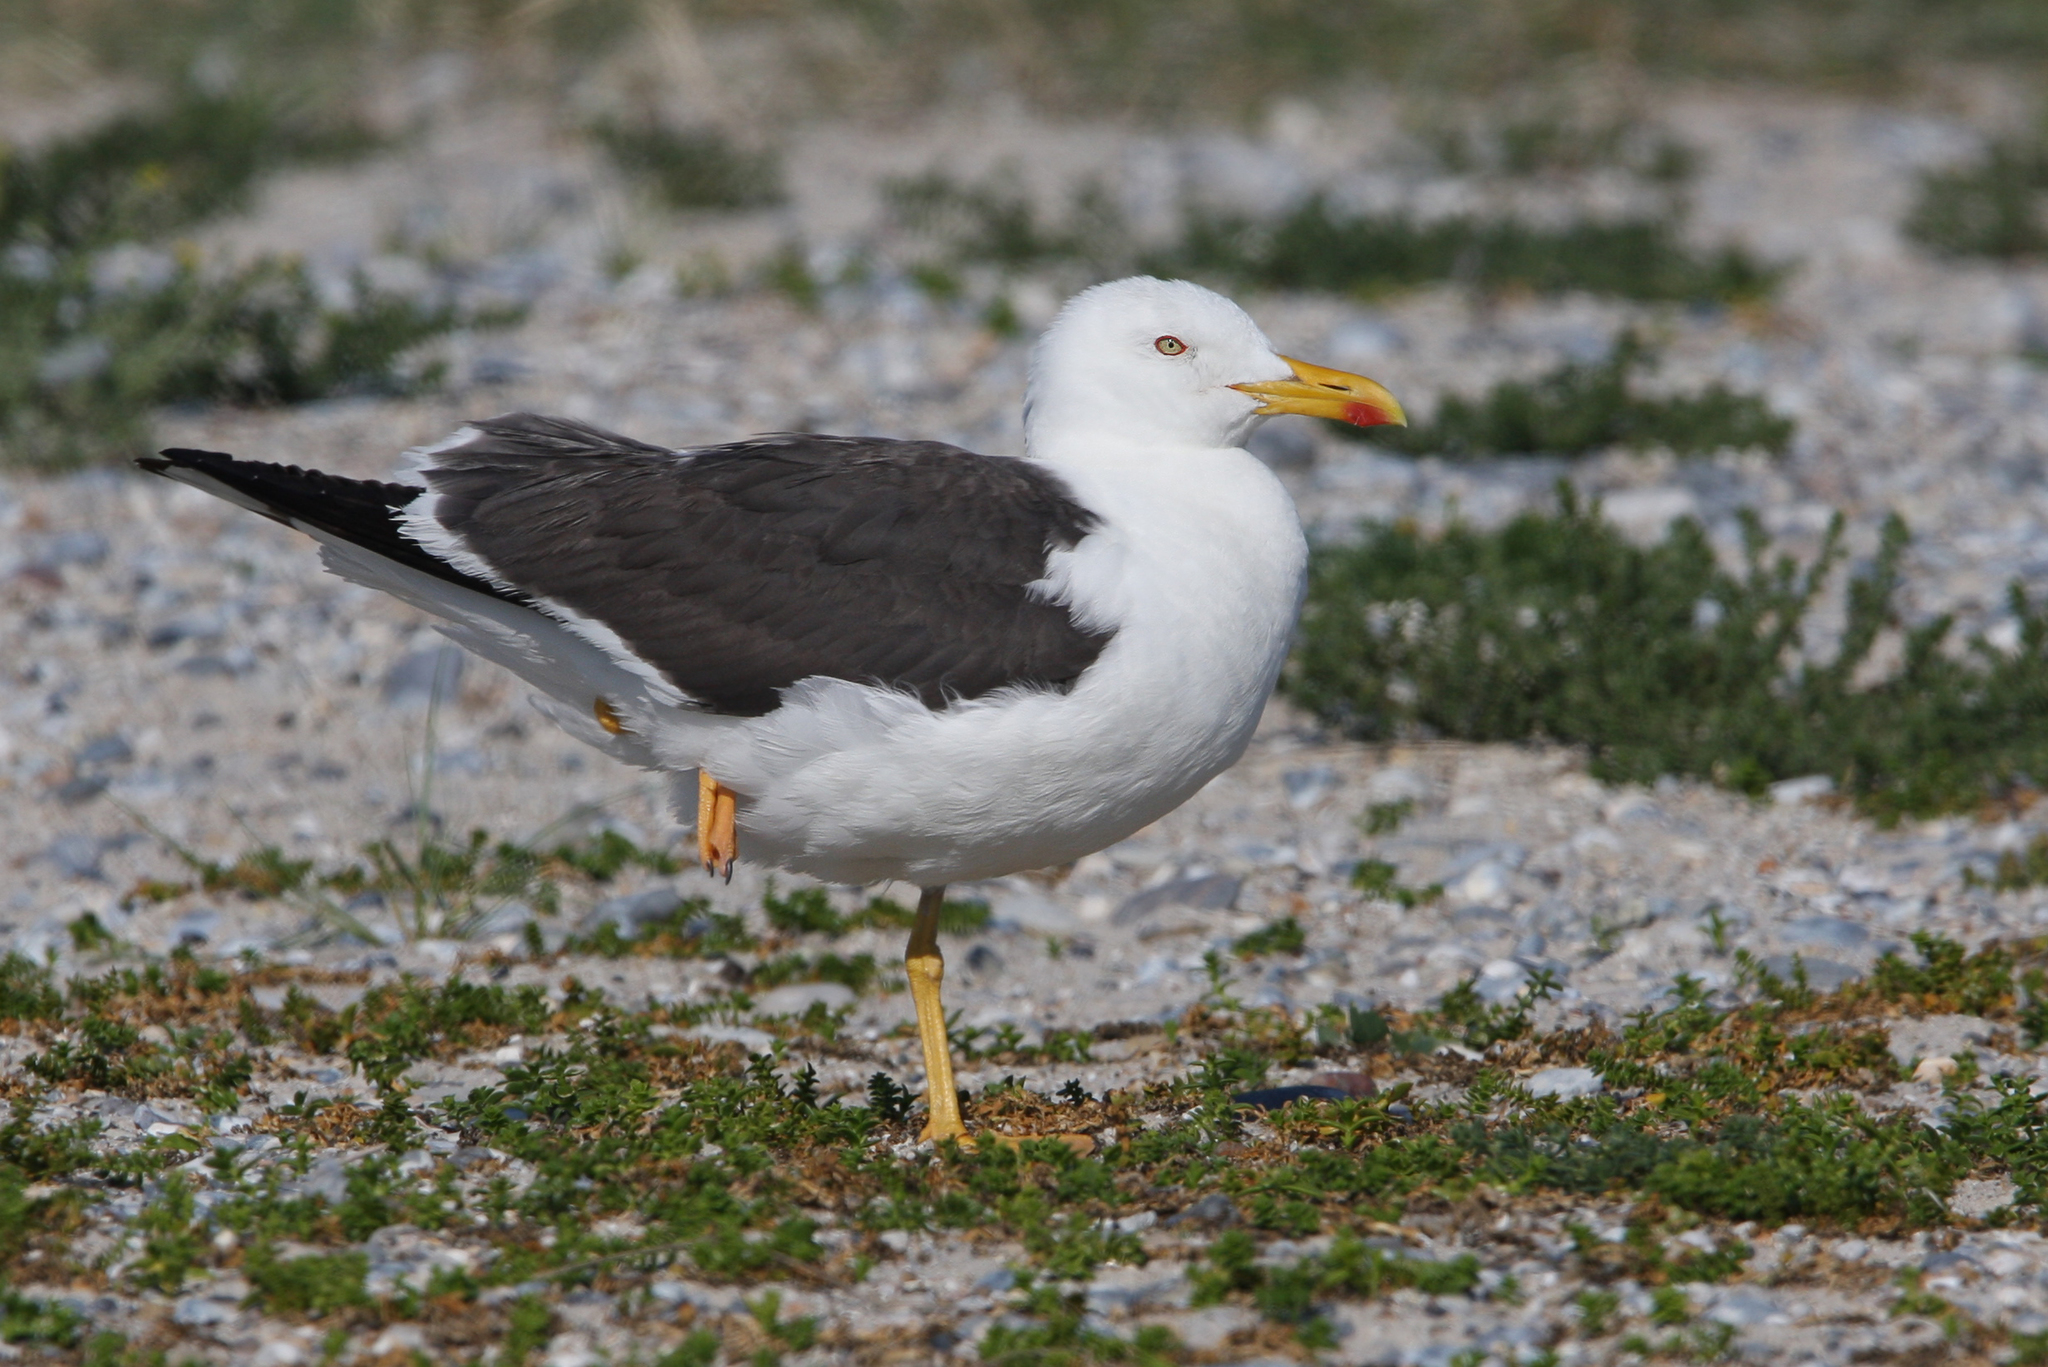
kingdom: Animalia
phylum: Chordata
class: Aves
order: Charadriiformes
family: Laridae
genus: Larus
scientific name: Larus fuscus
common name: Lesser black-backed gull
